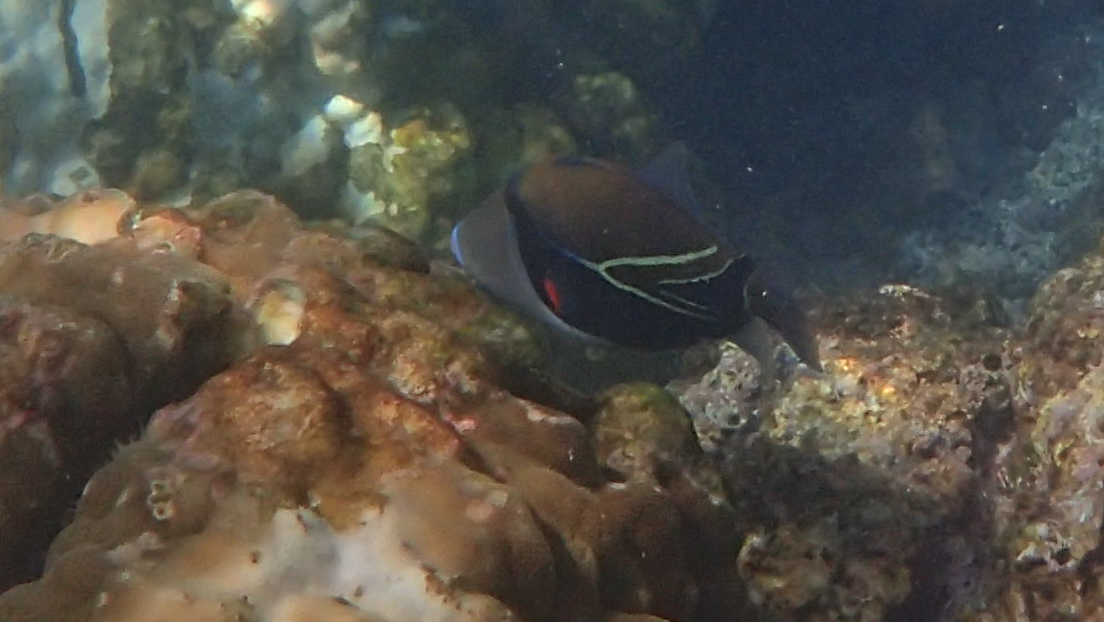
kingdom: Animalia
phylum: Chordata
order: Tetraodontiformes
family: Balistidae
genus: Rhinecanthus
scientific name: Rhinecanthus rectangulus
